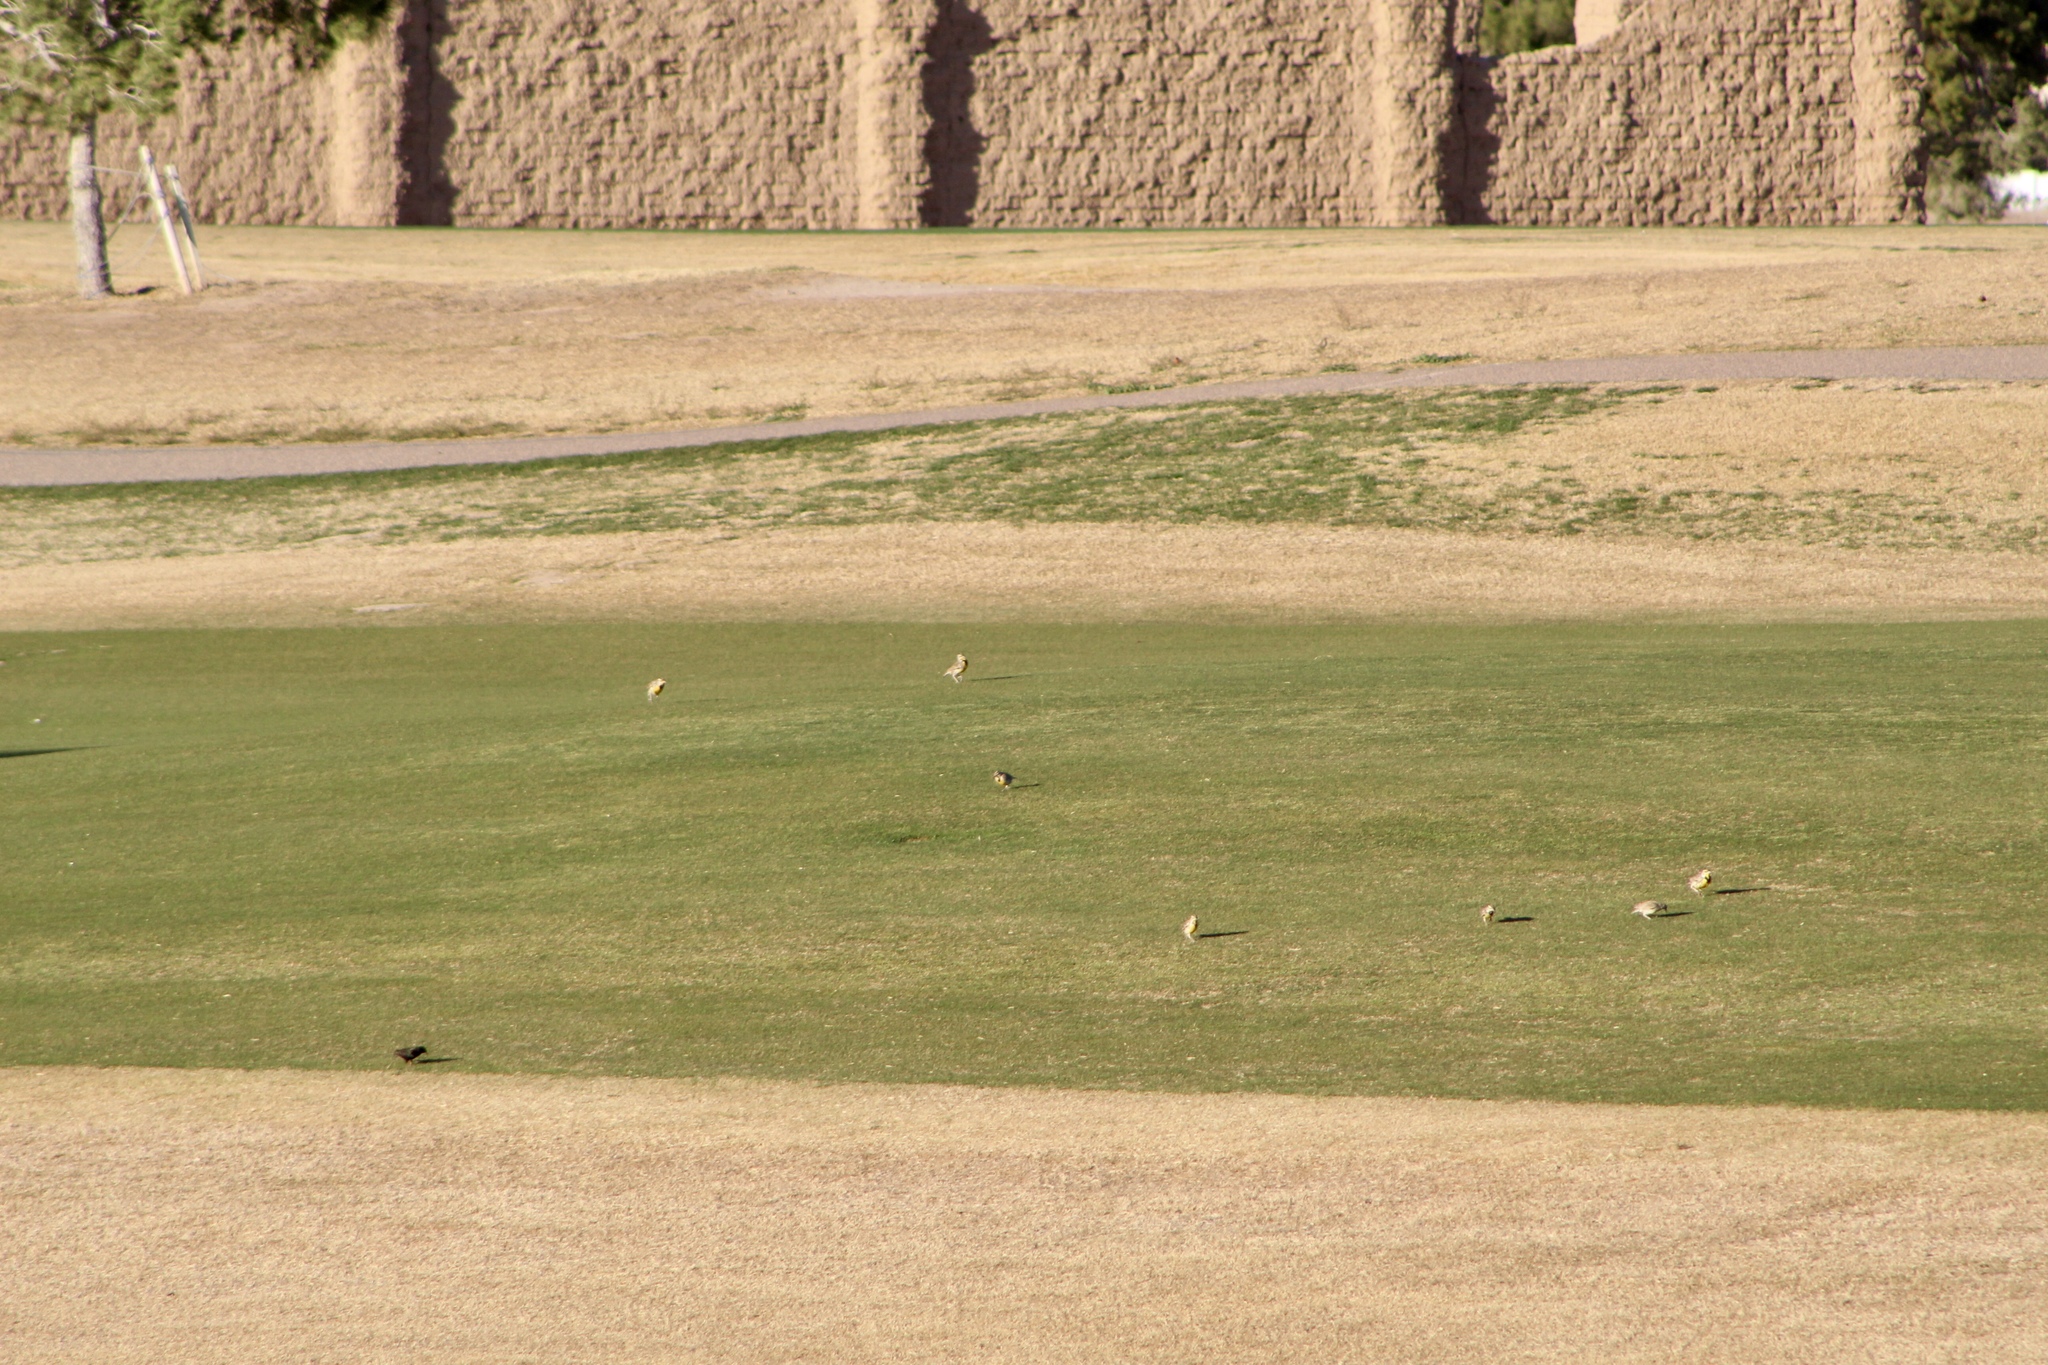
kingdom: Animalia
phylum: Chordata
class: Aves
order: Passeriformes
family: Icteridae
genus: Sturnella
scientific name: Sturnella neglecta
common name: Western meadowlark
